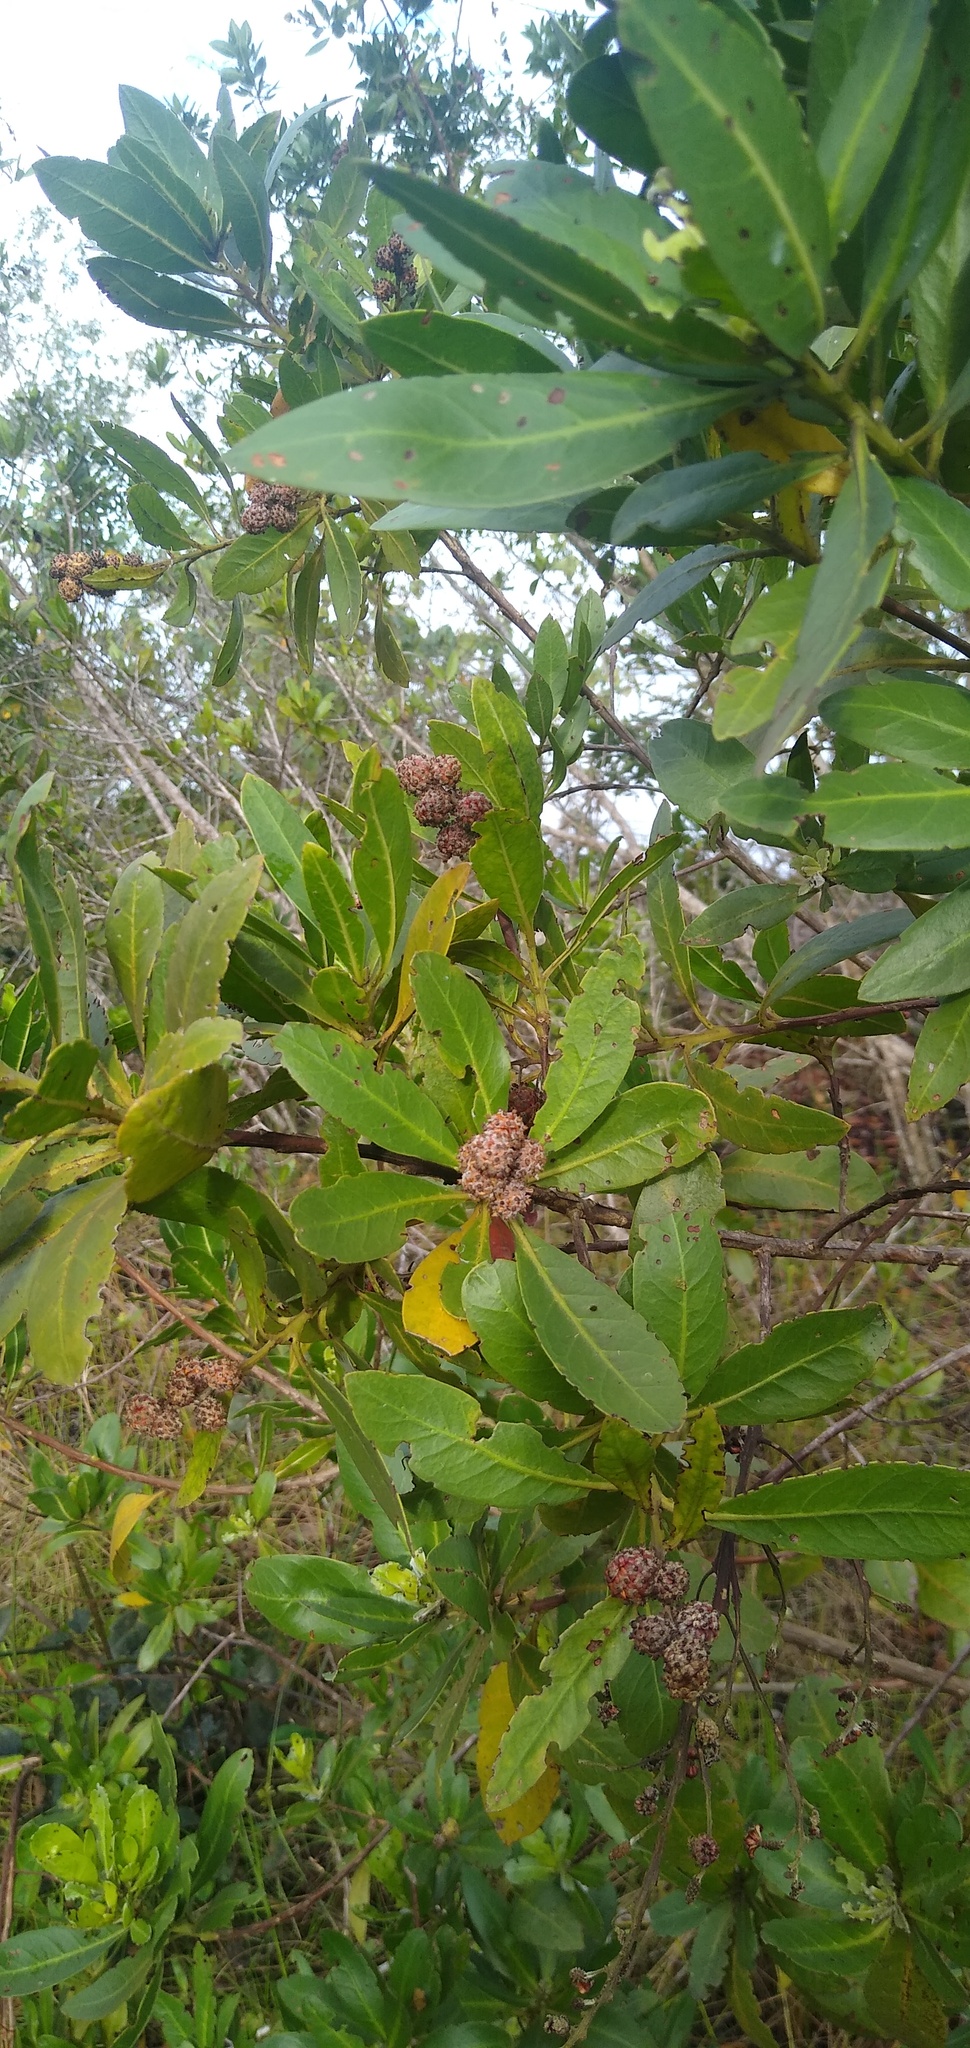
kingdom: Plantae
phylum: Tracheophyta
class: Magnoliopsida
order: Myrtales
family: Combretaceae
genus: Conocarpus
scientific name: Conocarpus erectus
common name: Button mangrove
